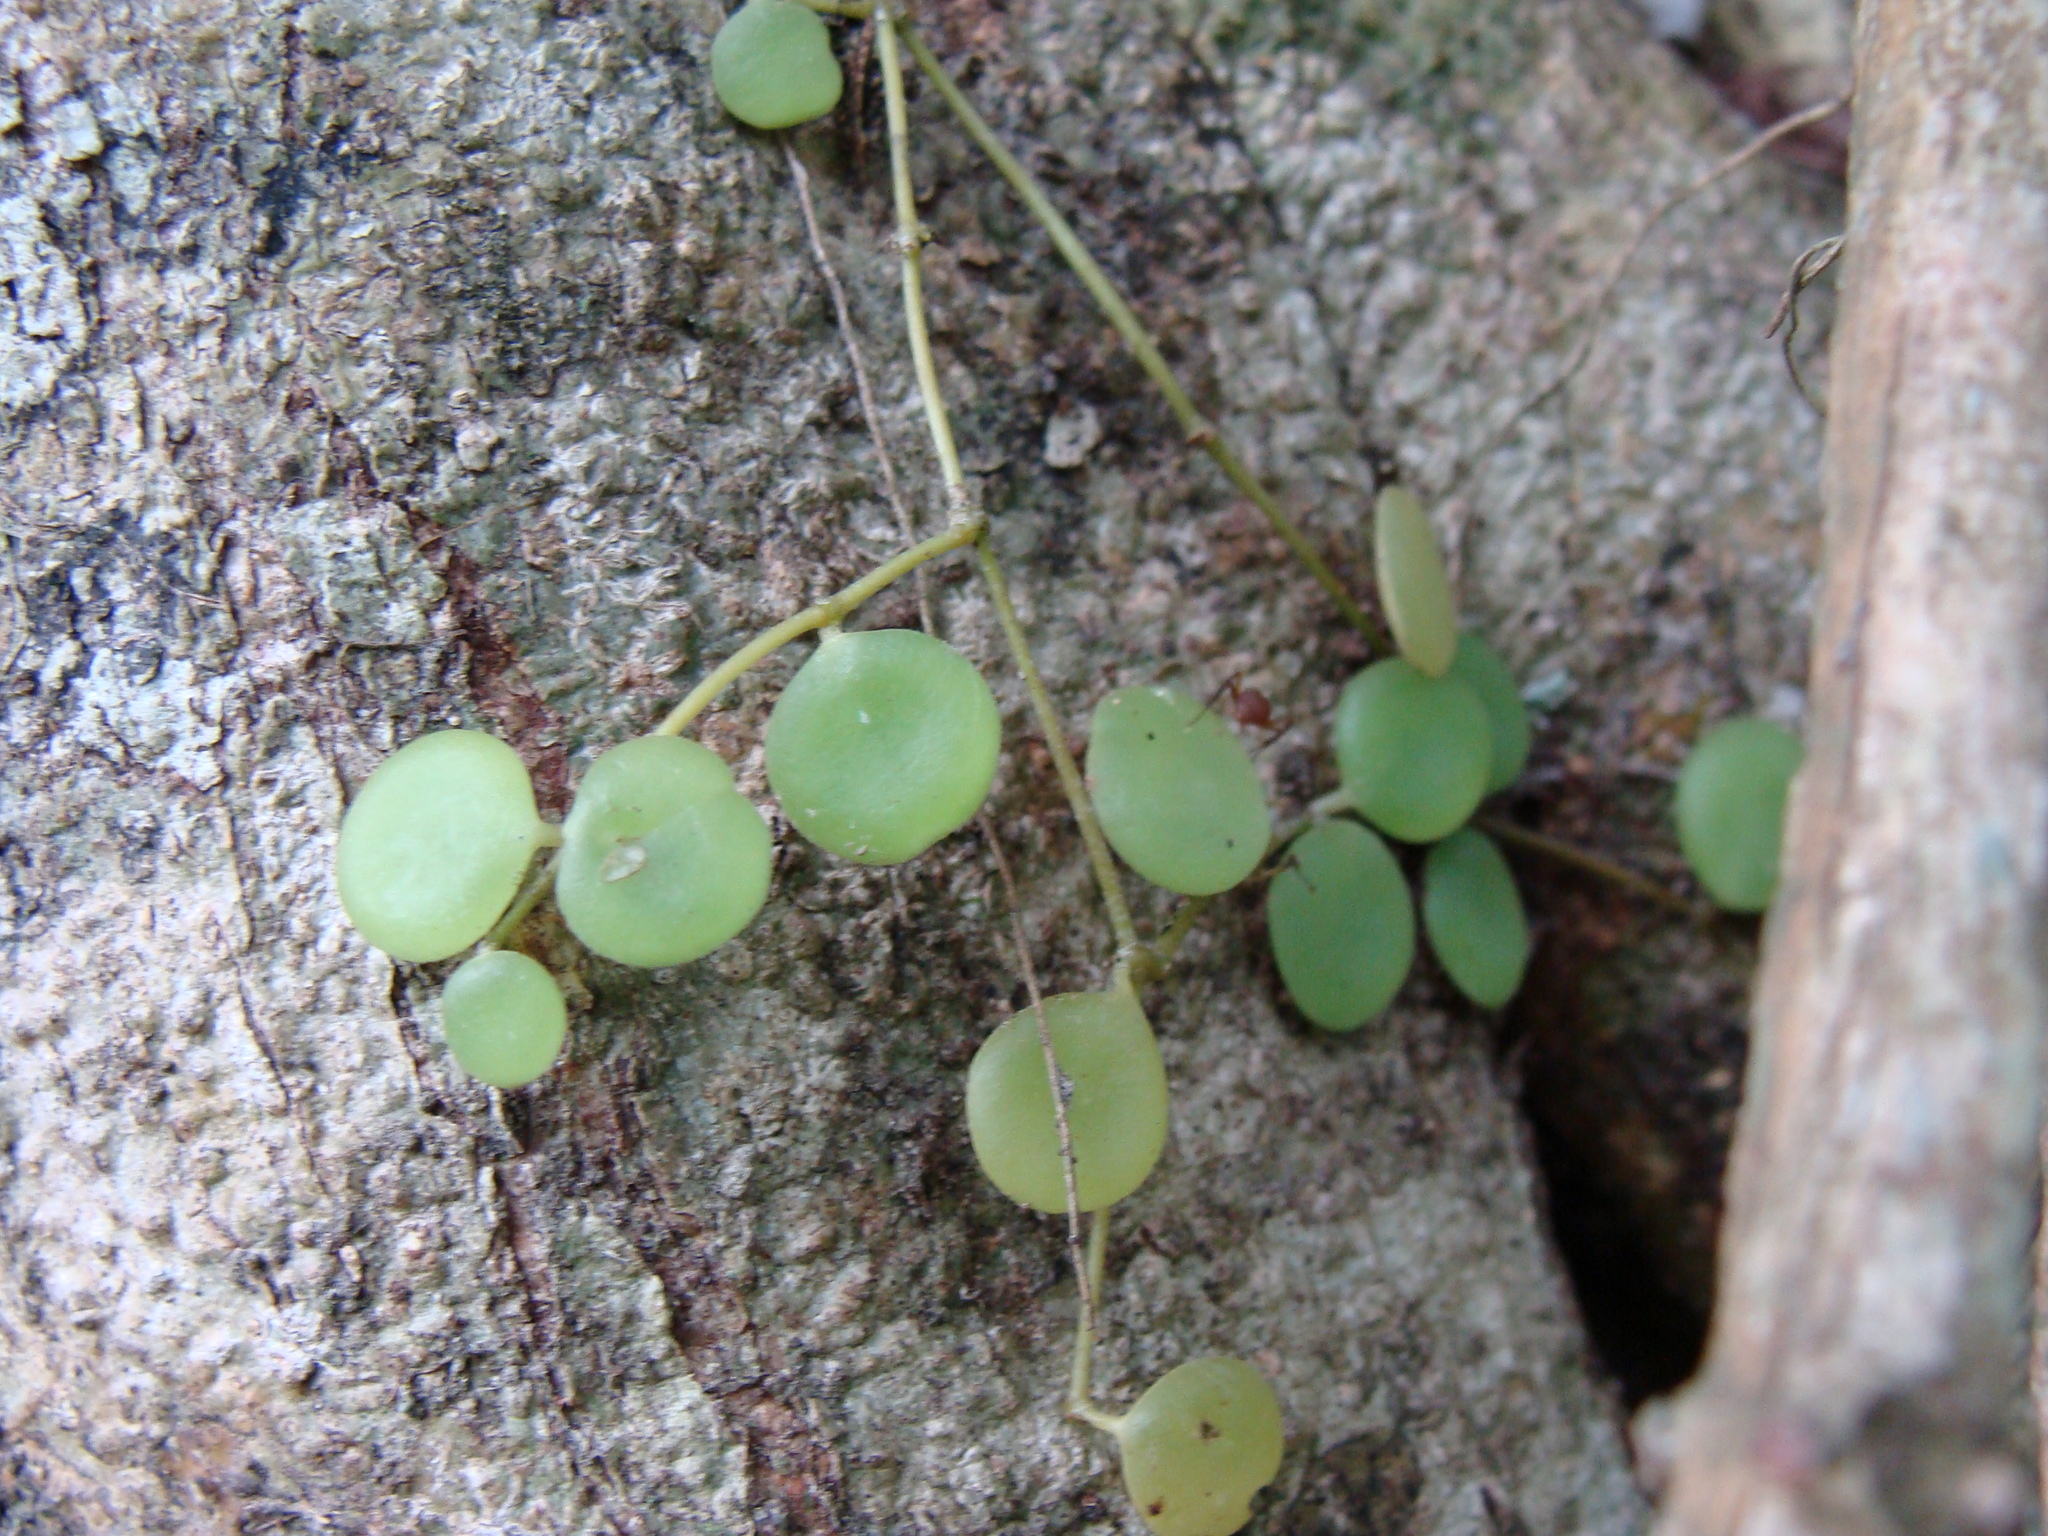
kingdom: Plantae
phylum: Tracheophyta
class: Magnoliopsida
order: Piperales
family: Piperaceae
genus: Peperomia
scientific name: Peperomia cyclophylla
